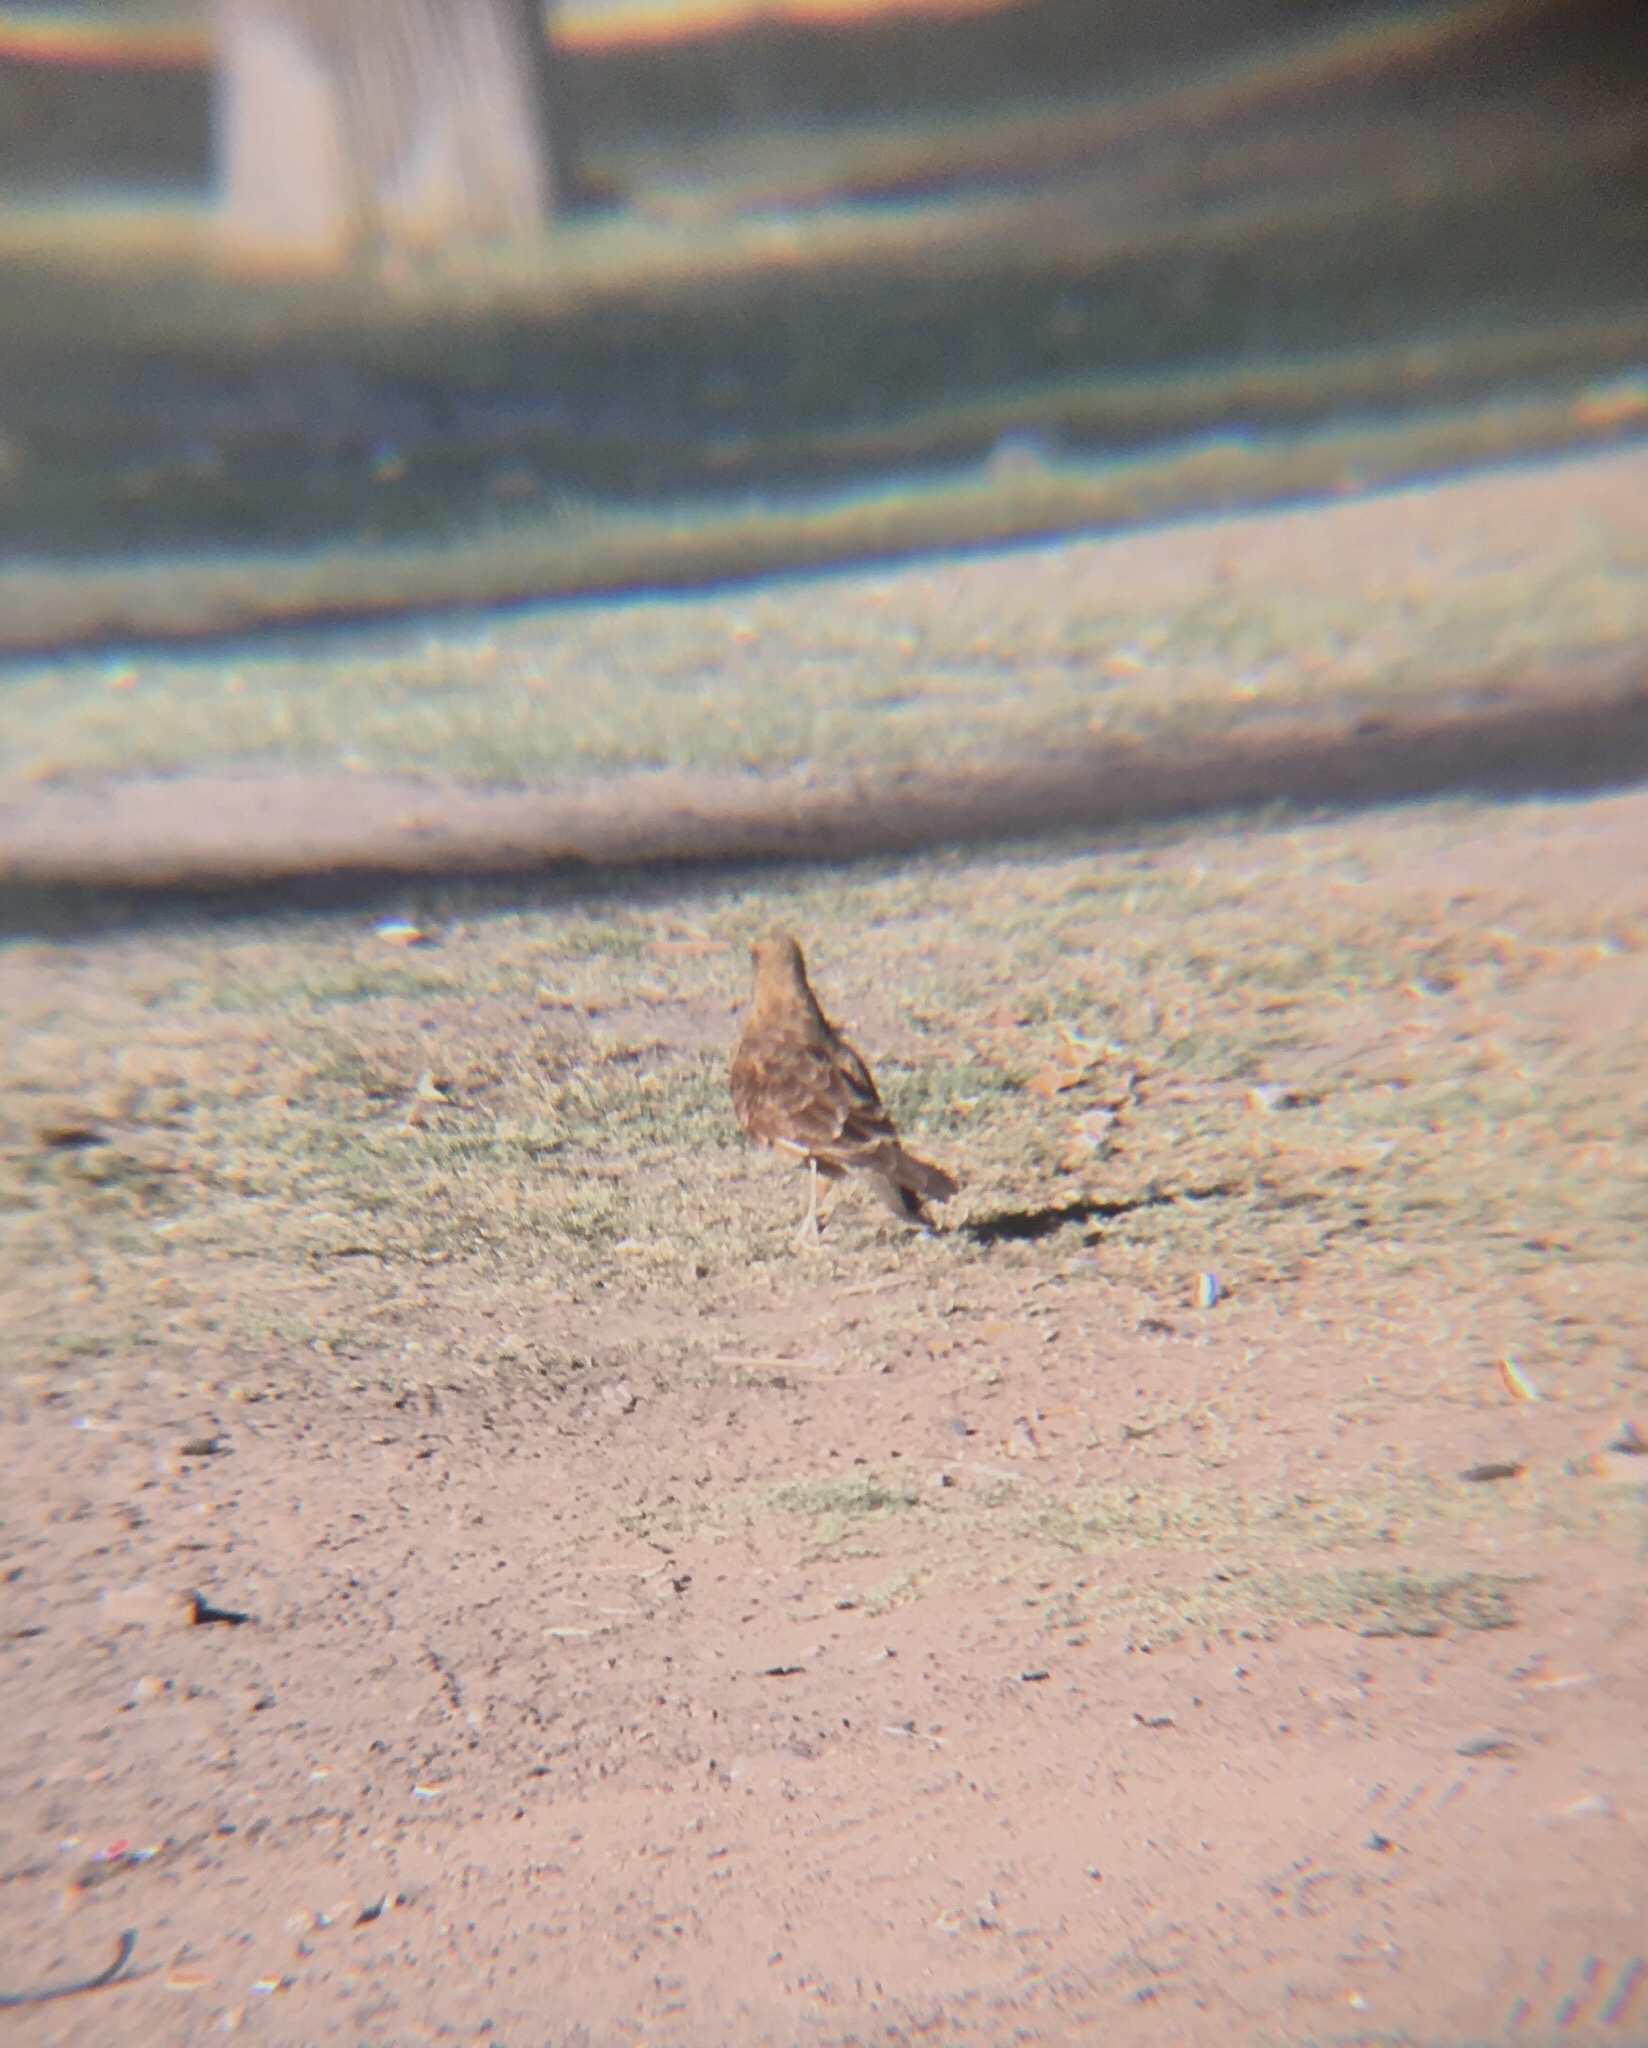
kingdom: Animalia
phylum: Chordata
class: Aves
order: Falconiformes
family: Falconidae
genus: Daptrius
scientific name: Daptrius
